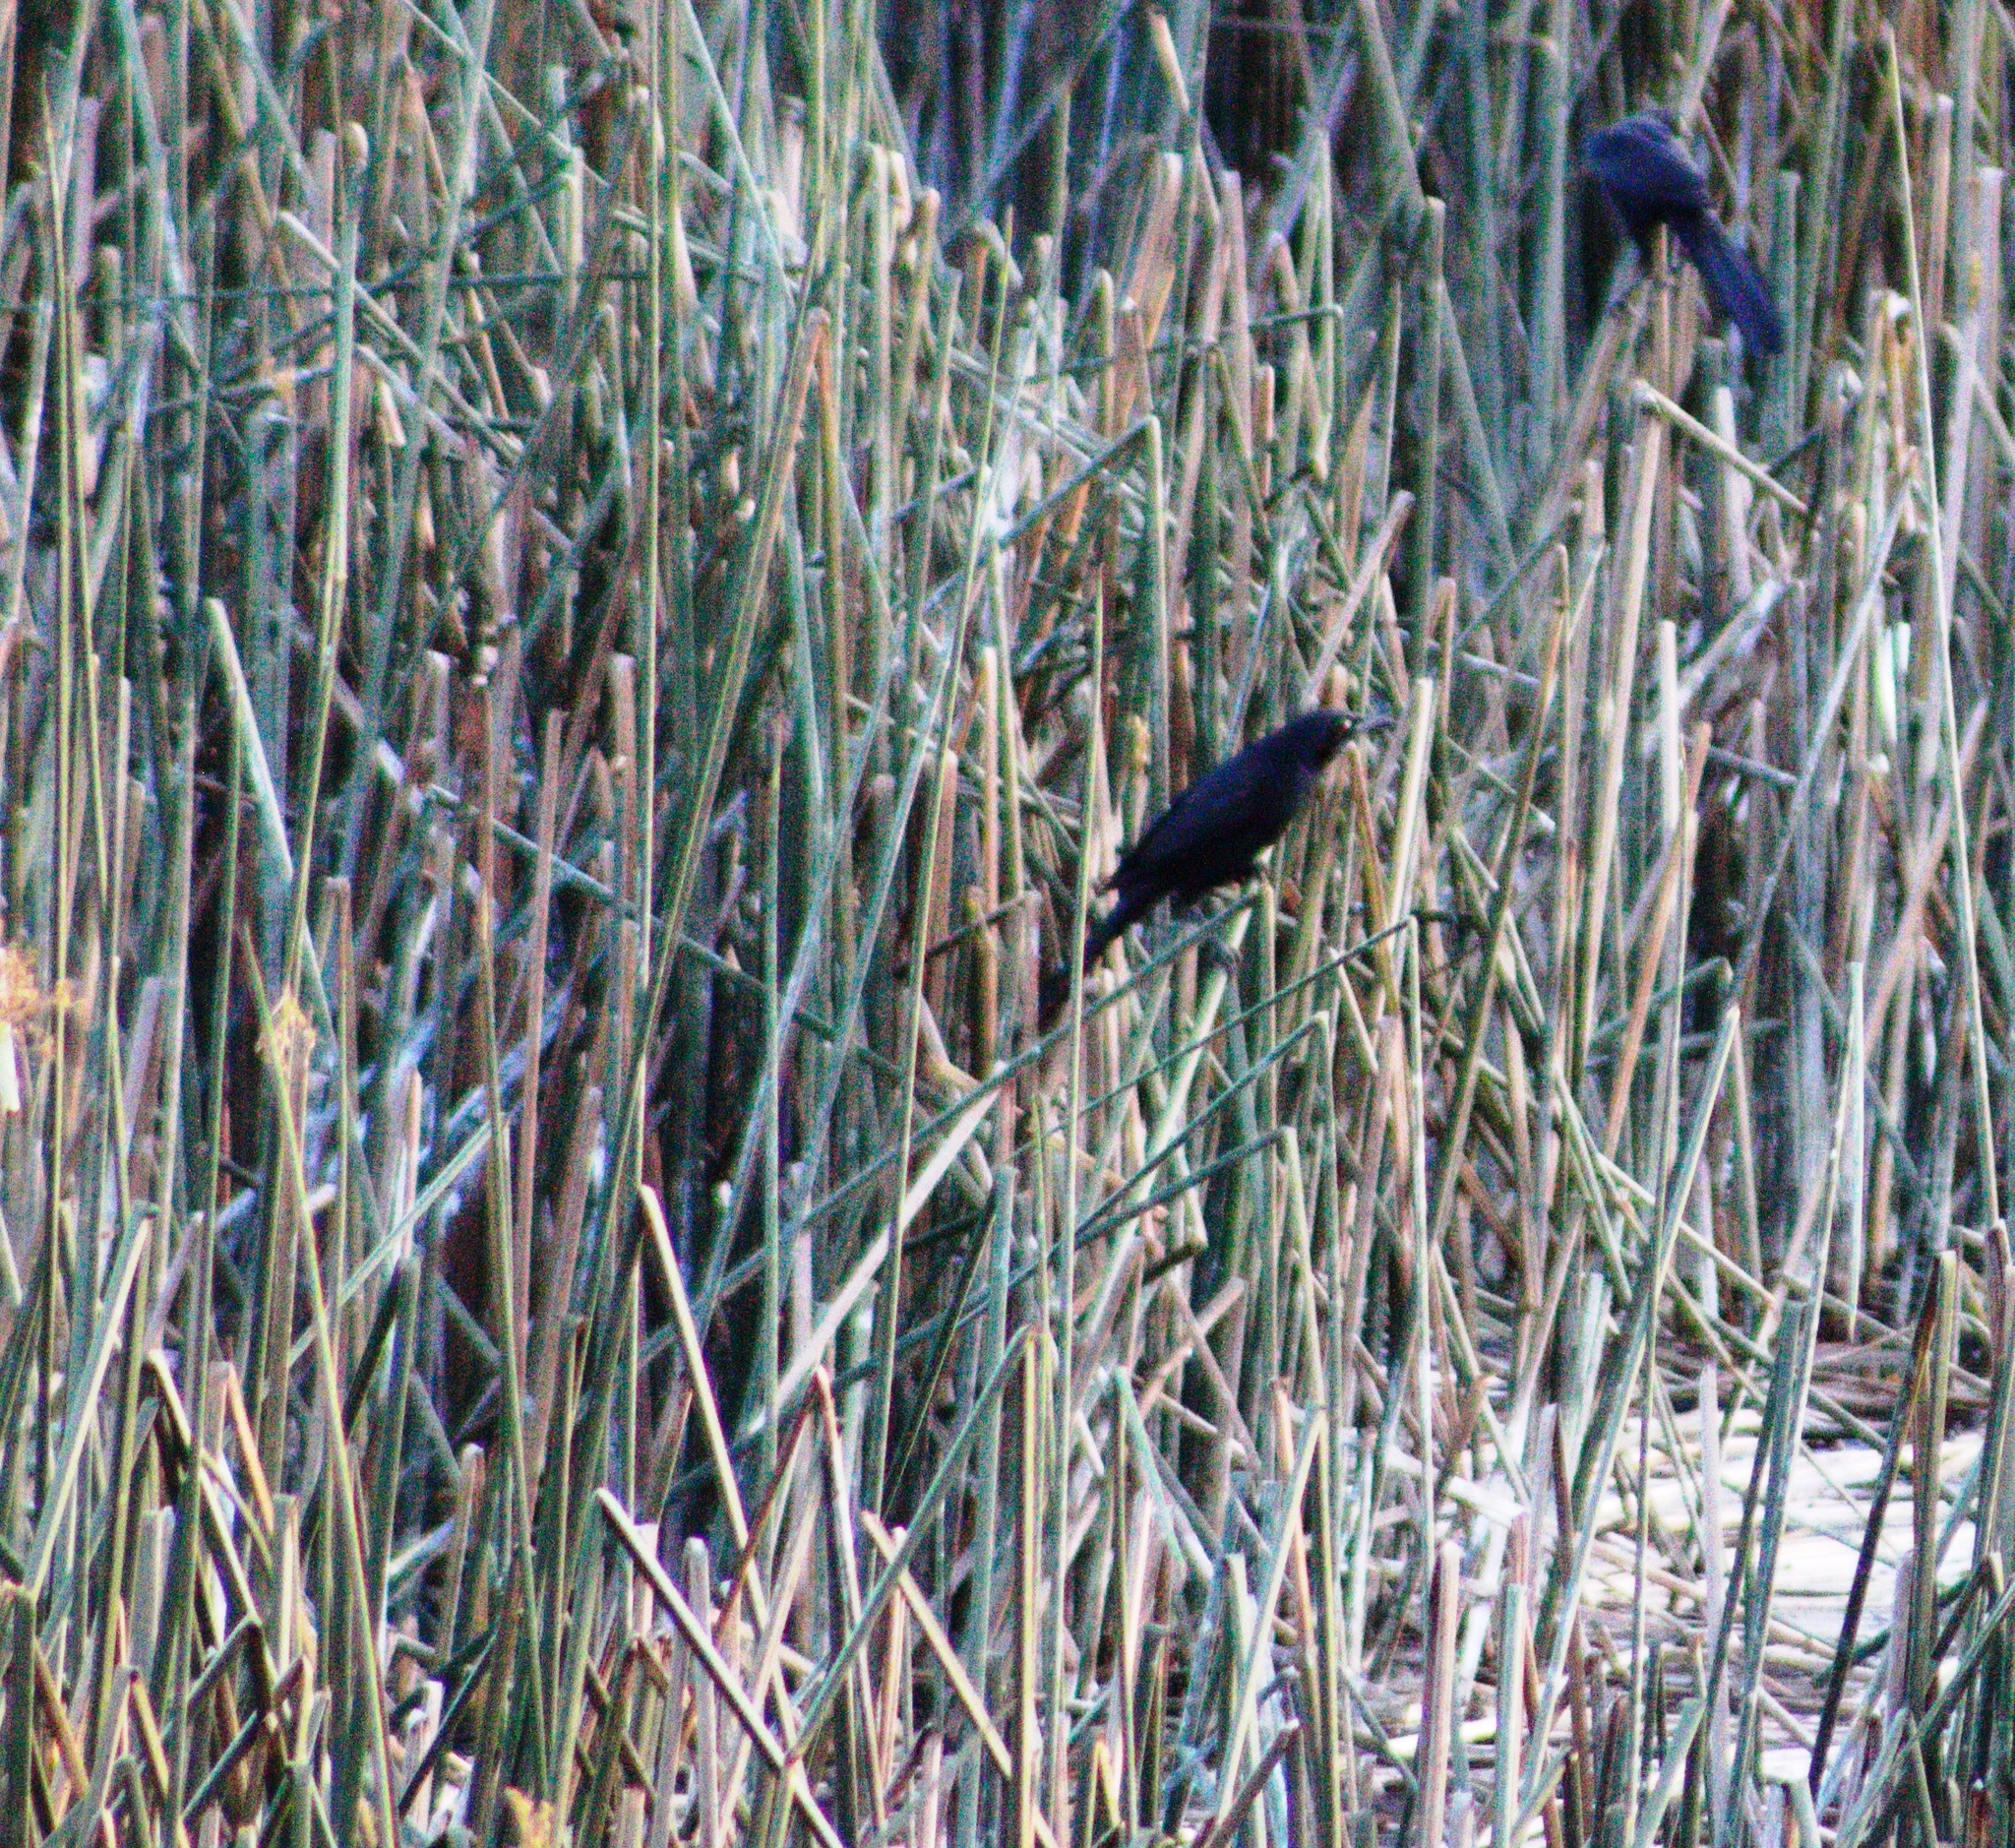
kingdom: Animalia
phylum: Chordata
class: Aves
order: Passeriformes
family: Icteridae
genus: Quiscalus
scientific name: Quiscalus mexicanus
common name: Great-tailed grackle
